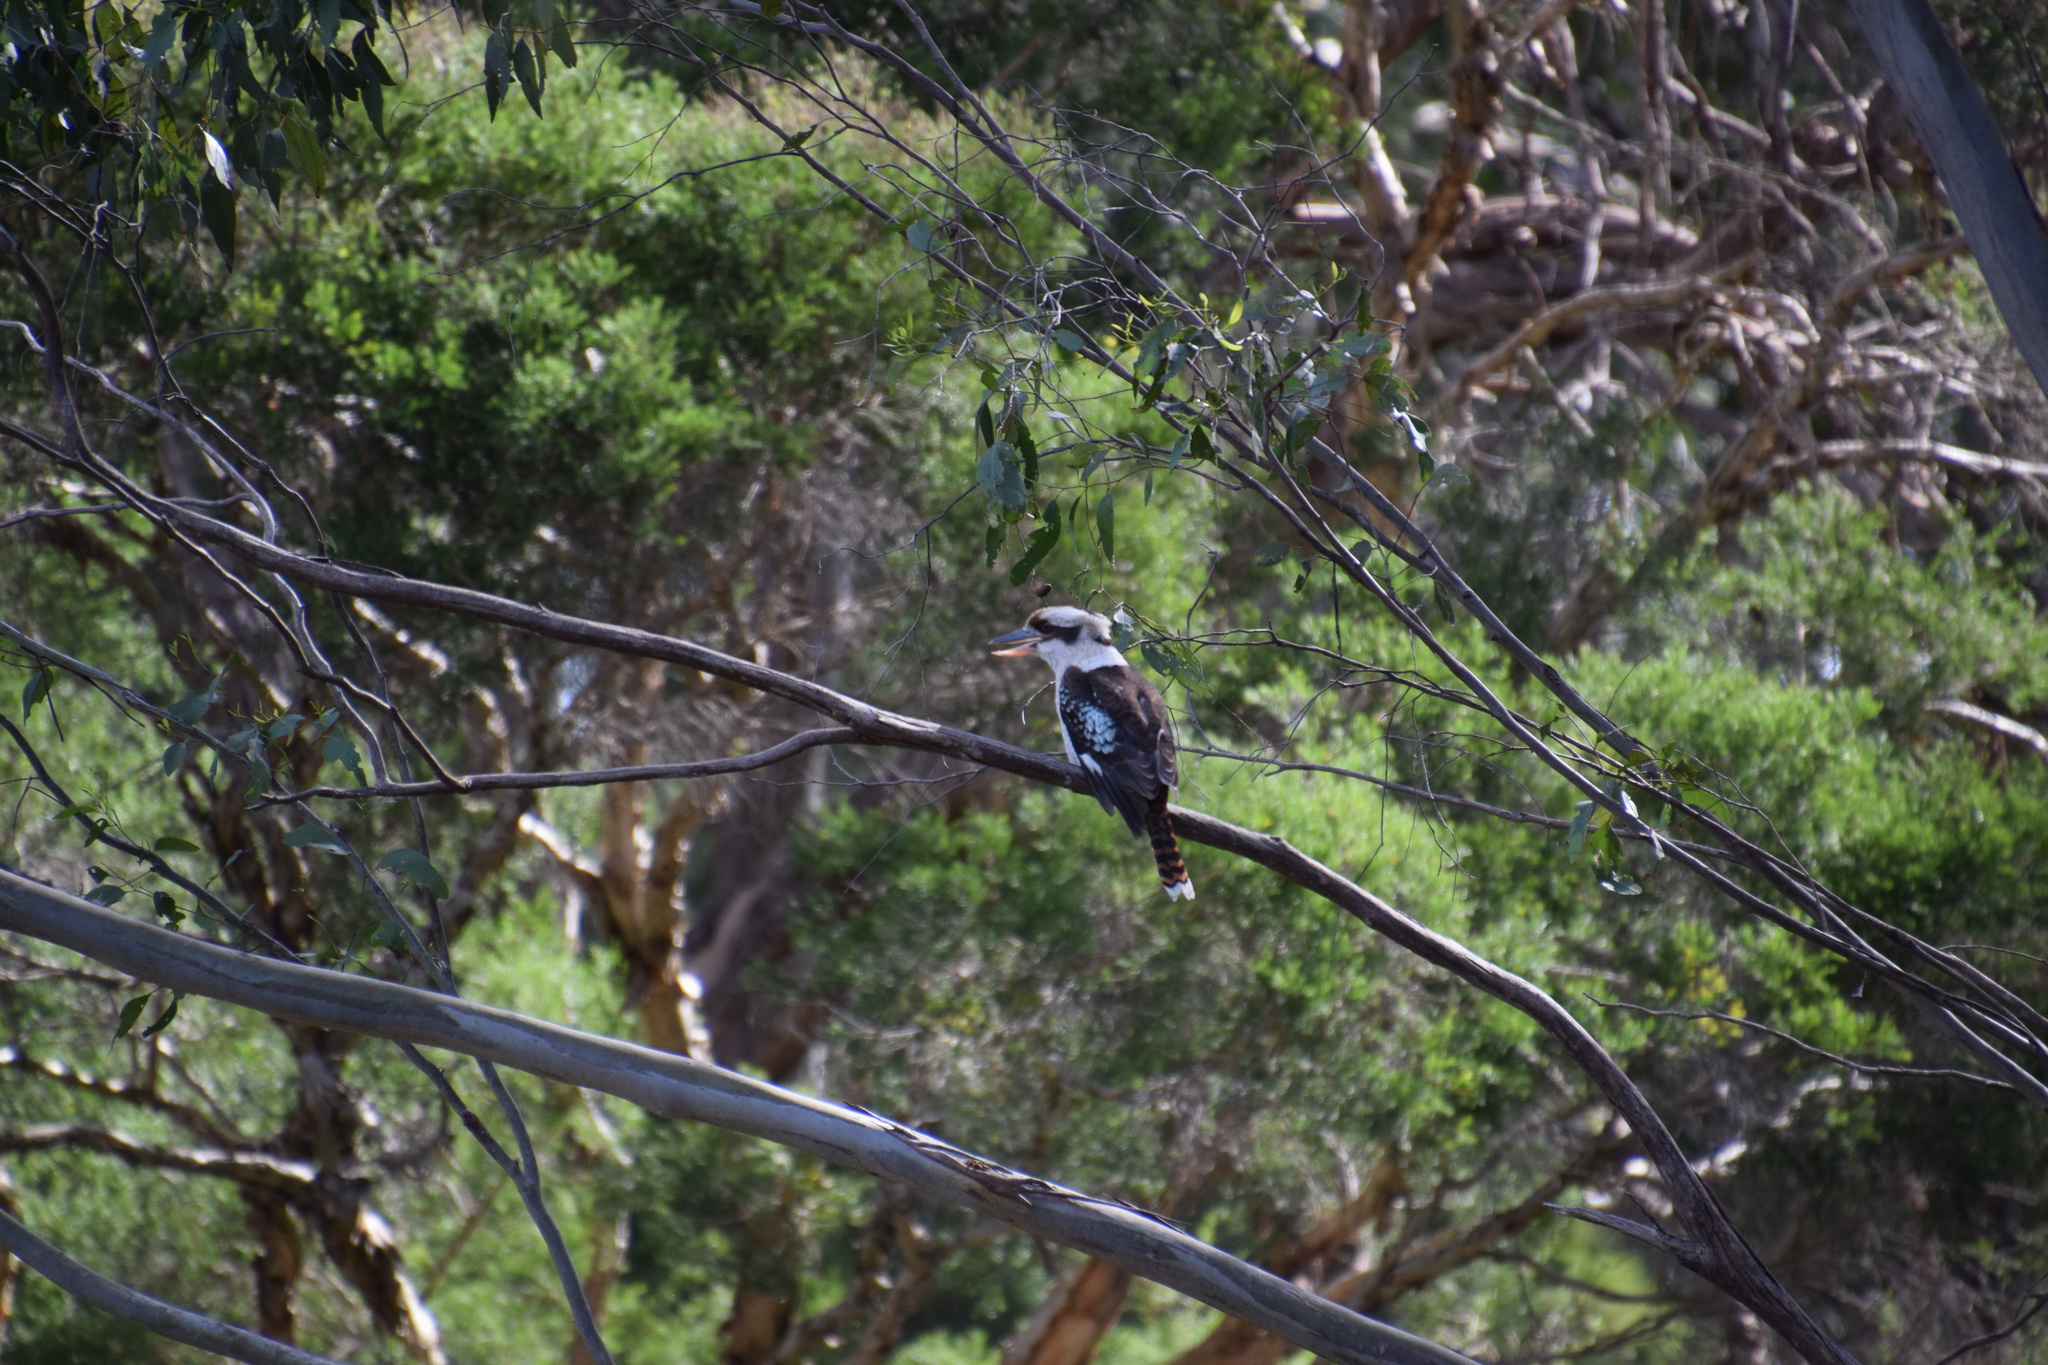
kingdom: Animalia
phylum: Chordata
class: Aves
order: Coraciiformes
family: Alcedinidae
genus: Dacelo
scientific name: Dacelo novaeguineae
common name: Laughing kookaburra
